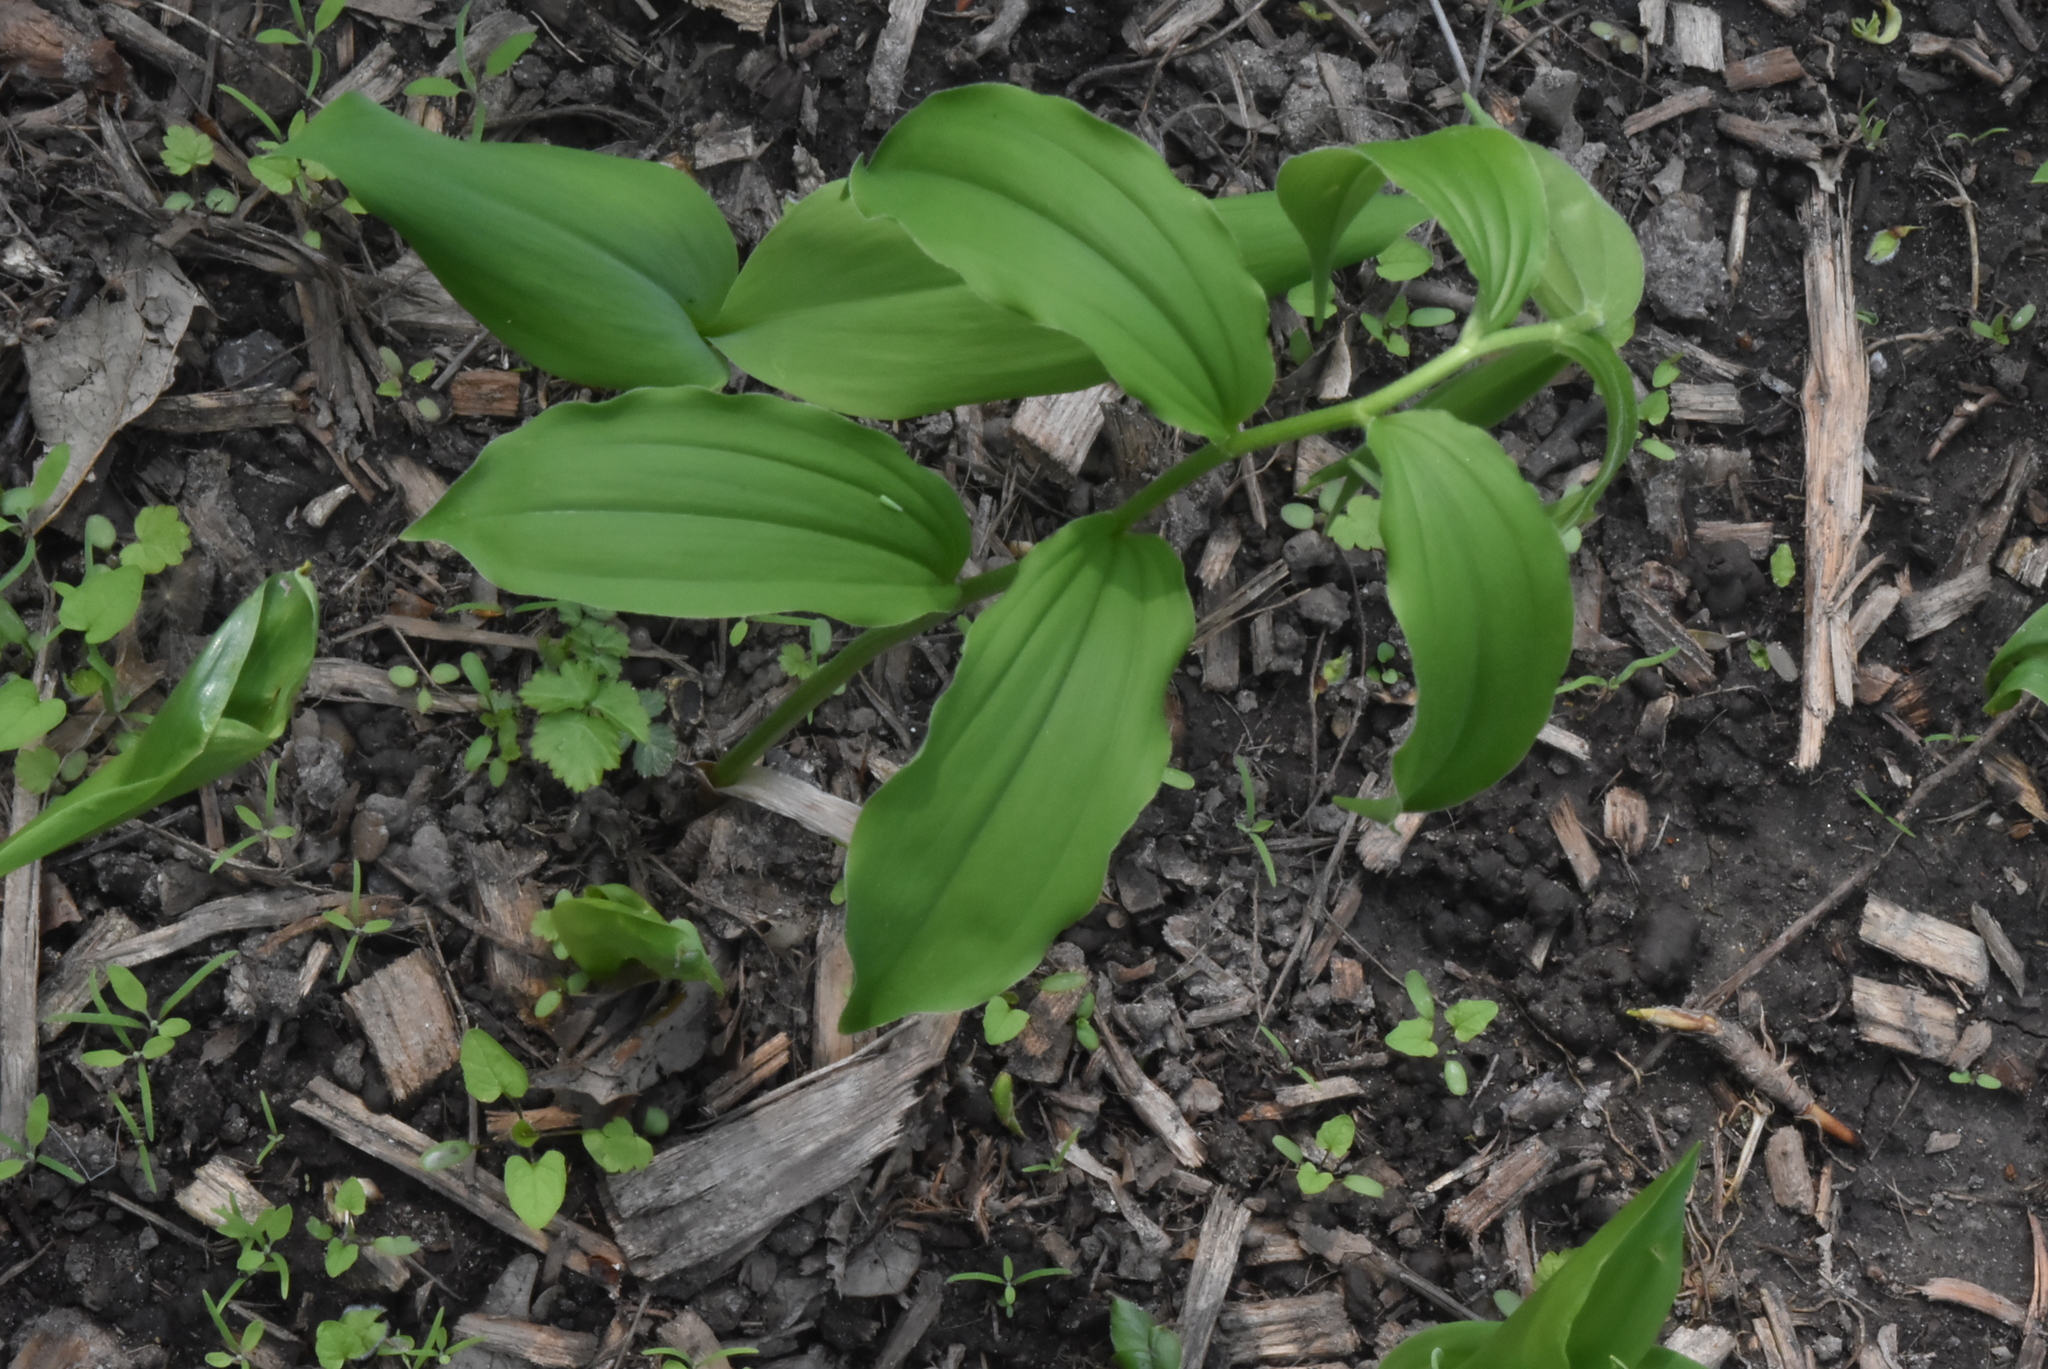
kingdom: Plantae
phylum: Tracheophyta
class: Liliopsida
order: Asparagales
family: Asparagaceae
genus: Maianthemum
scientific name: Maianthemum racemosum
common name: False spikenard
